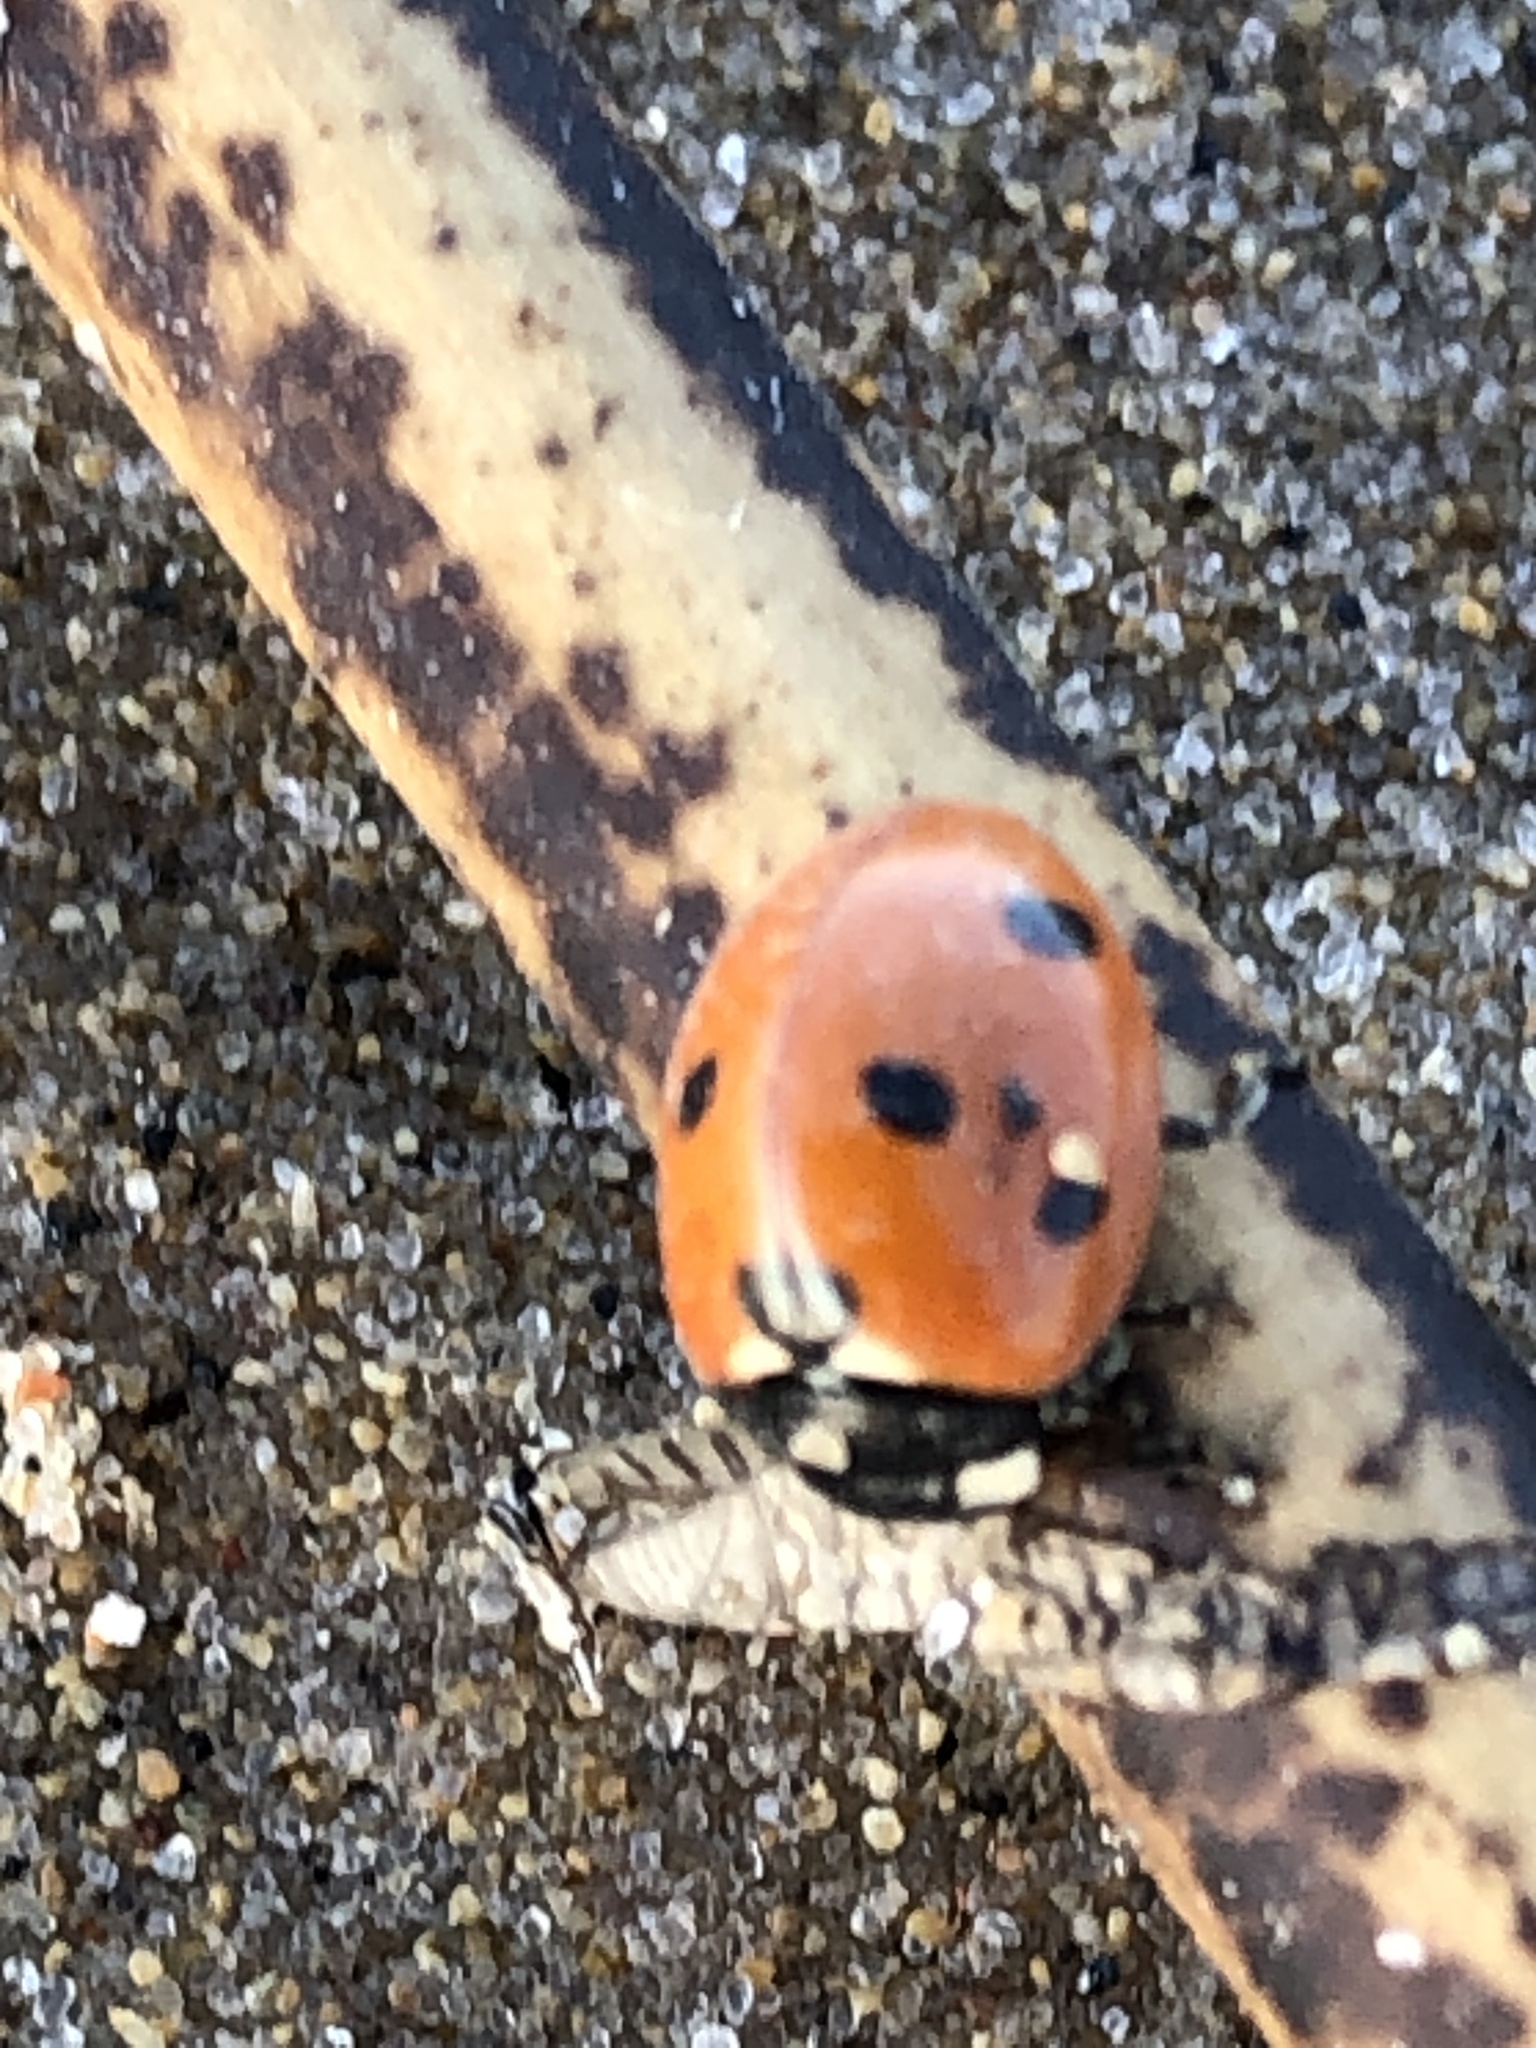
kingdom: Animalia
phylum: Arthropoda
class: Insecta
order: Coleoptera
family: Coccinellidae
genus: Coccinella
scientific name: Coccinella septempunctata
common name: Sevenspotted lady beetle
